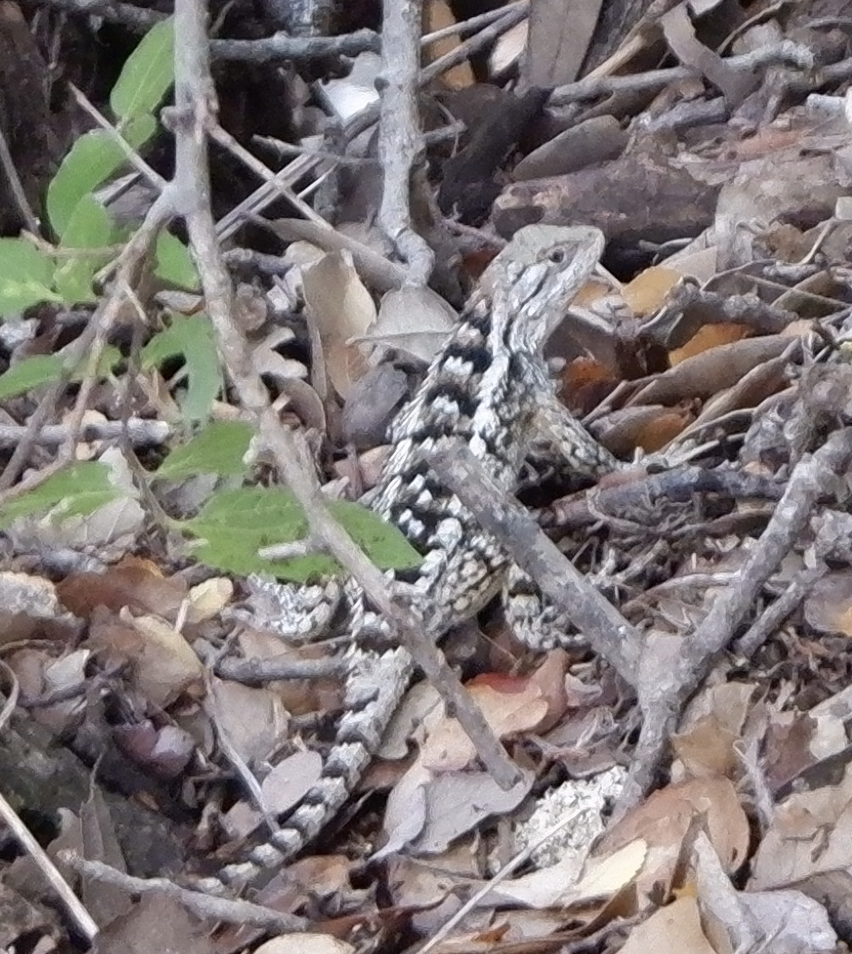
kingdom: Animalia
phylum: Chordata
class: Squamata
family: Phrynosomatidae
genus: Sceloporus
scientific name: Sceloporus olivaceus
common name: Texas spiny lizard
